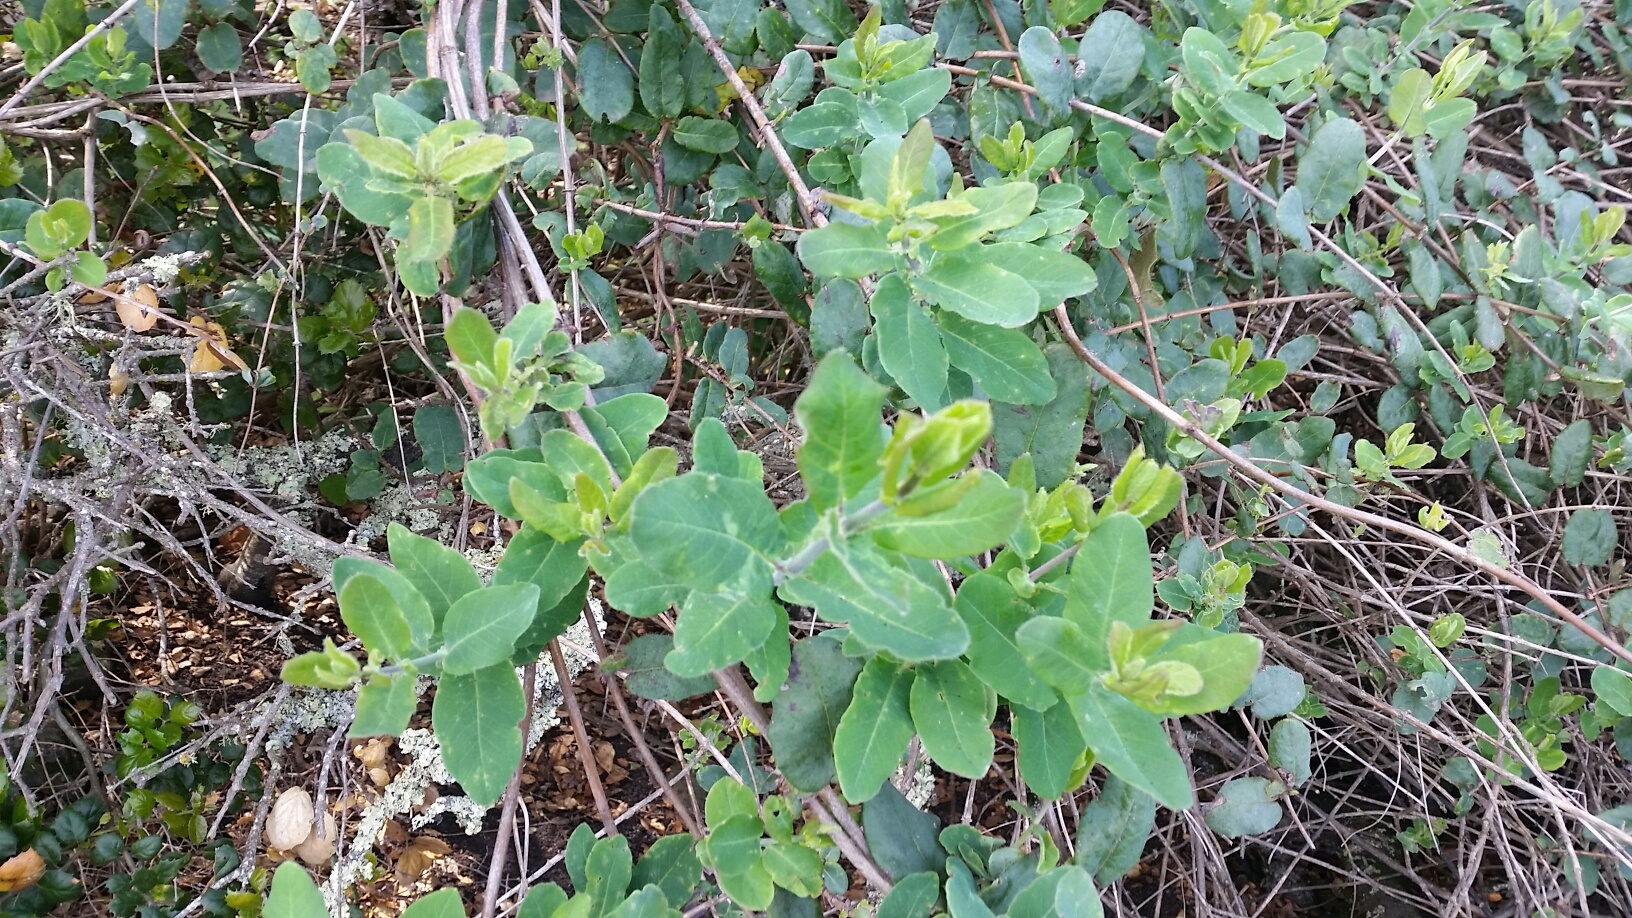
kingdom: Plantae
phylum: Tracheophyta
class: Magnoliopsida
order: Dipsacales
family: Caprifoliaceae
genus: Lonicera
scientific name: Lonicera hispidula
